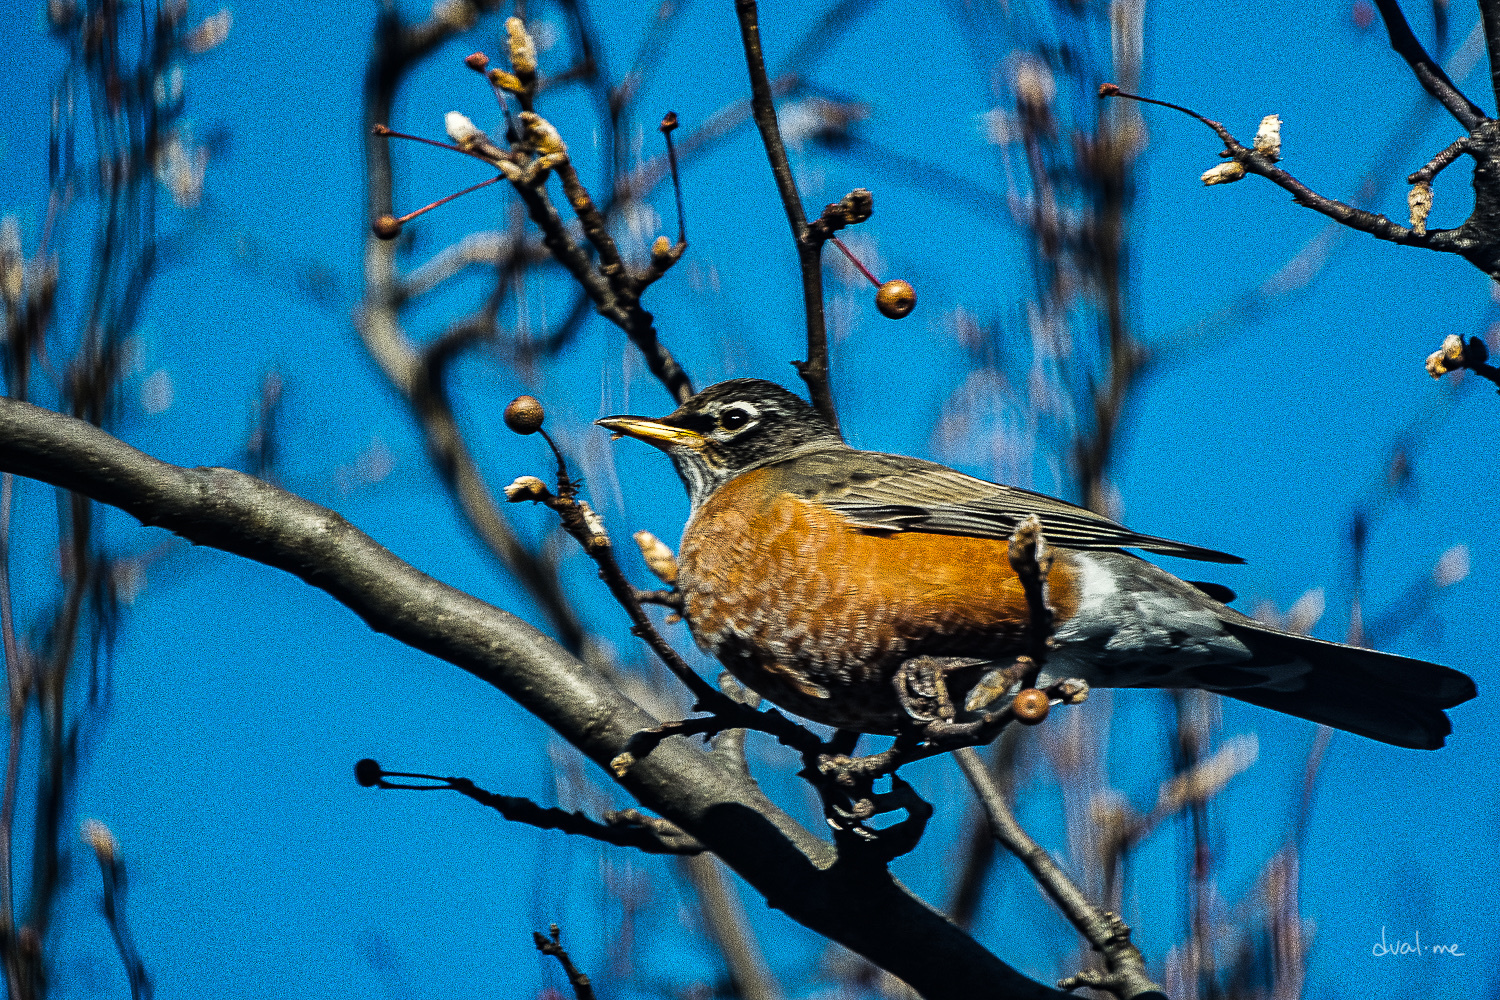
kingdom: Animalia
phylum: Chordata
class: Aves
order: Passeriformes
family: Turdidae
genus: Turdus
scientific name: Turdus migratorius
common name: American robin
